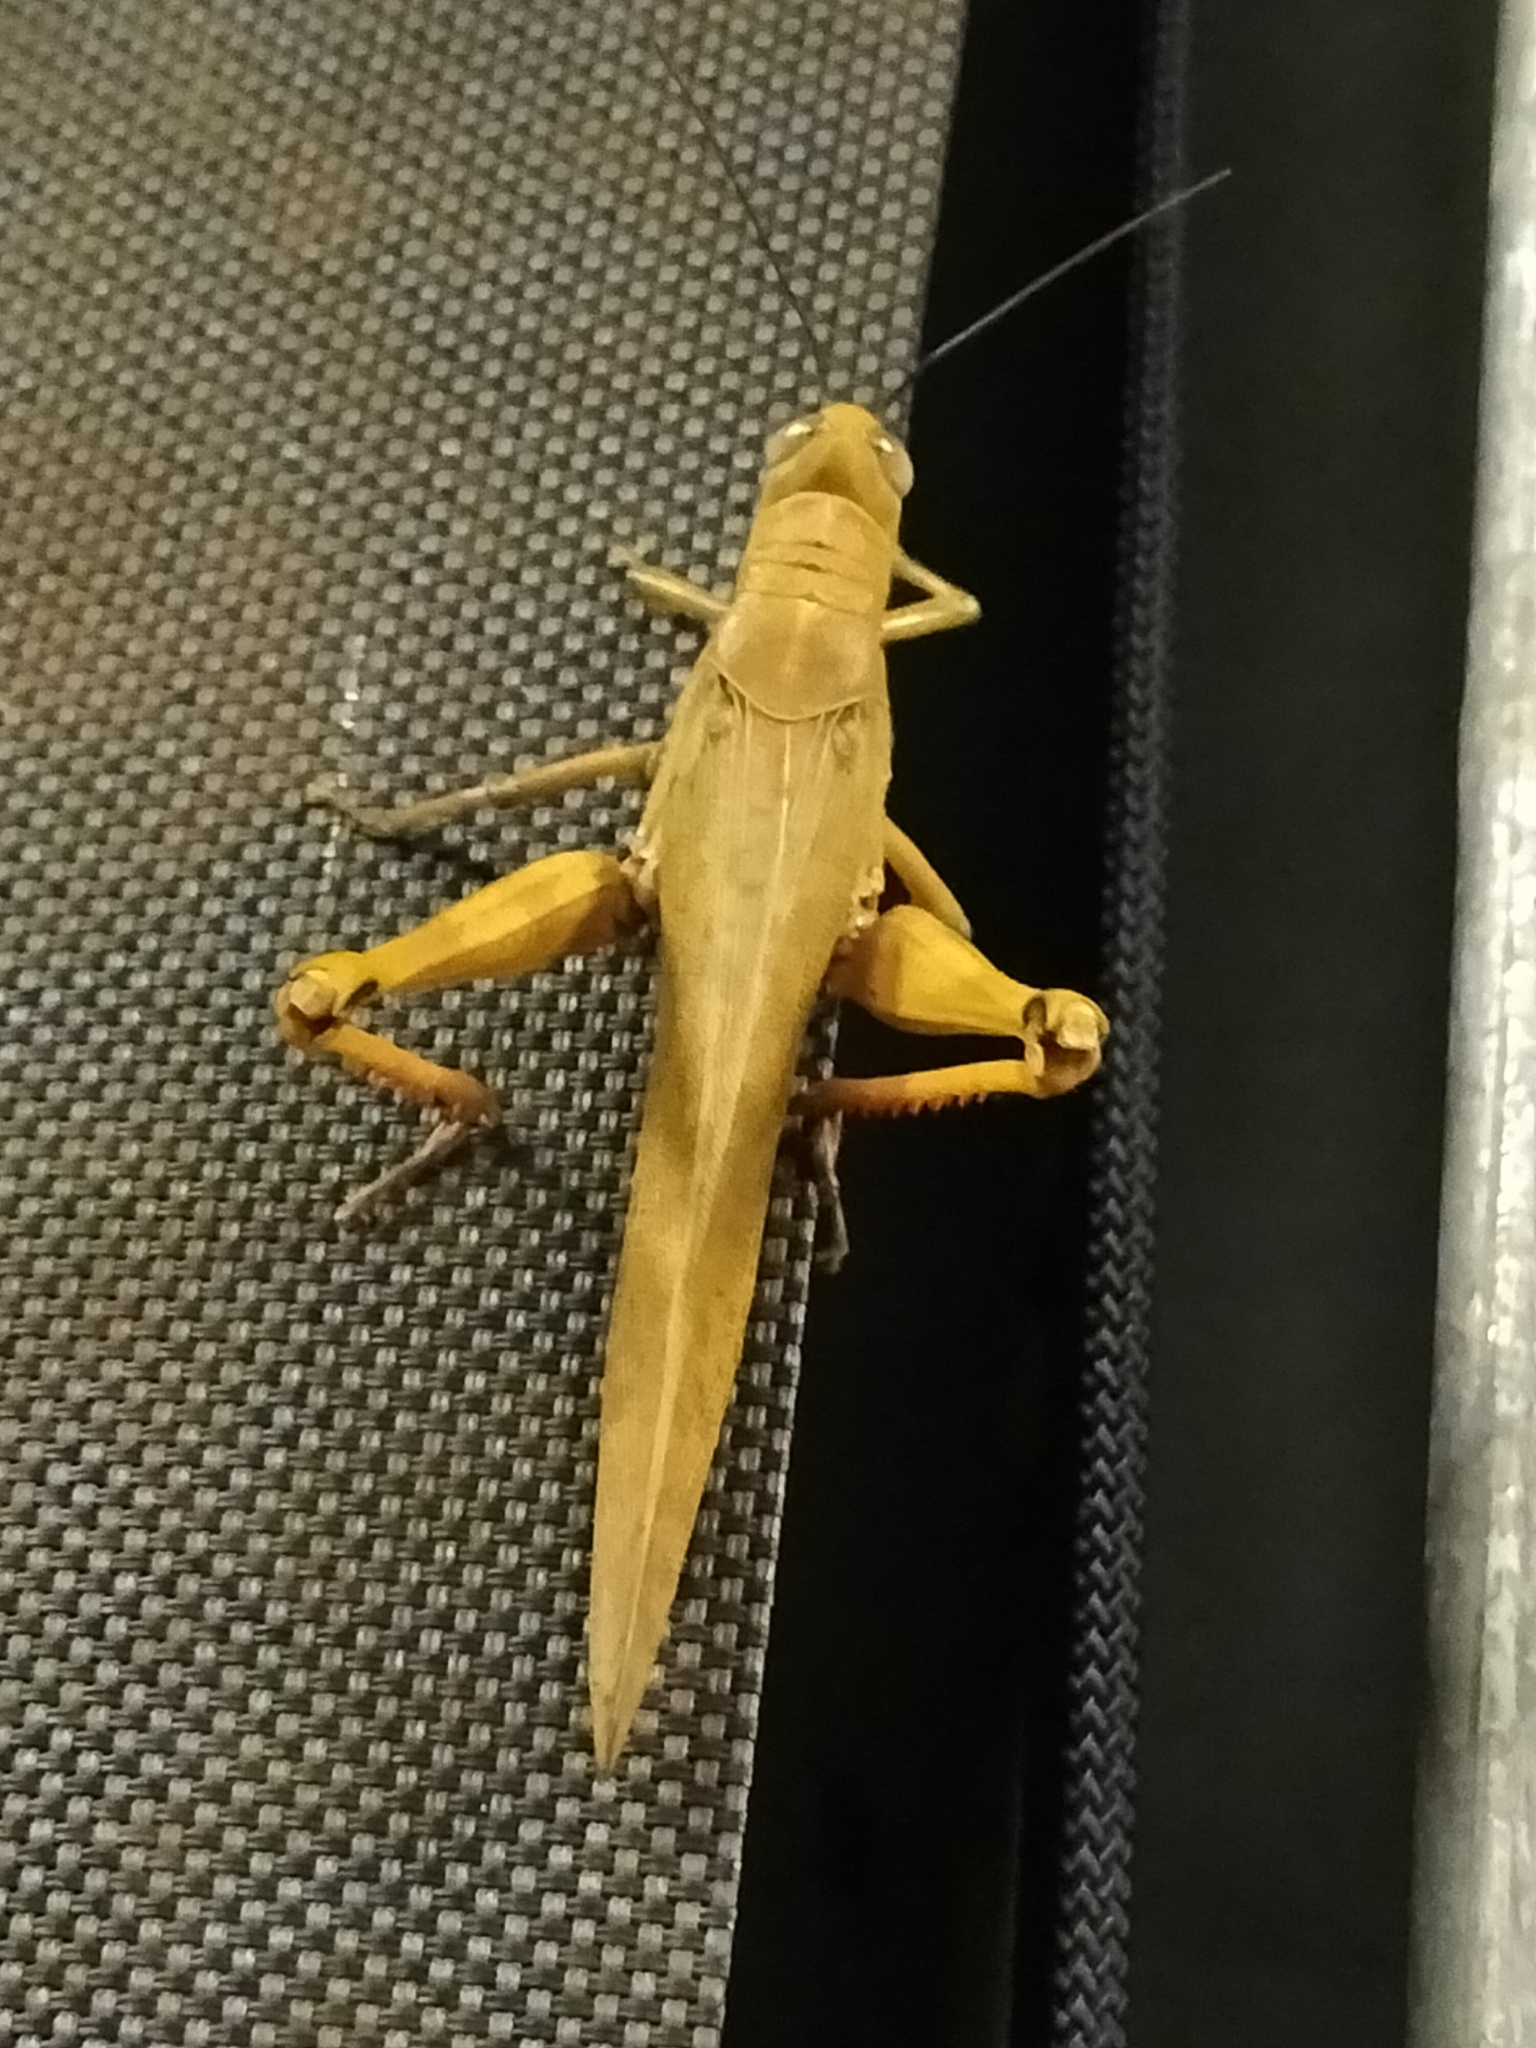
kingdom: Animalia
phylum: Arthropoda
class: Insecta
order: Orthoptera
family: Acrididae
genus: Valanga
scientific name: Valanga irregularis
